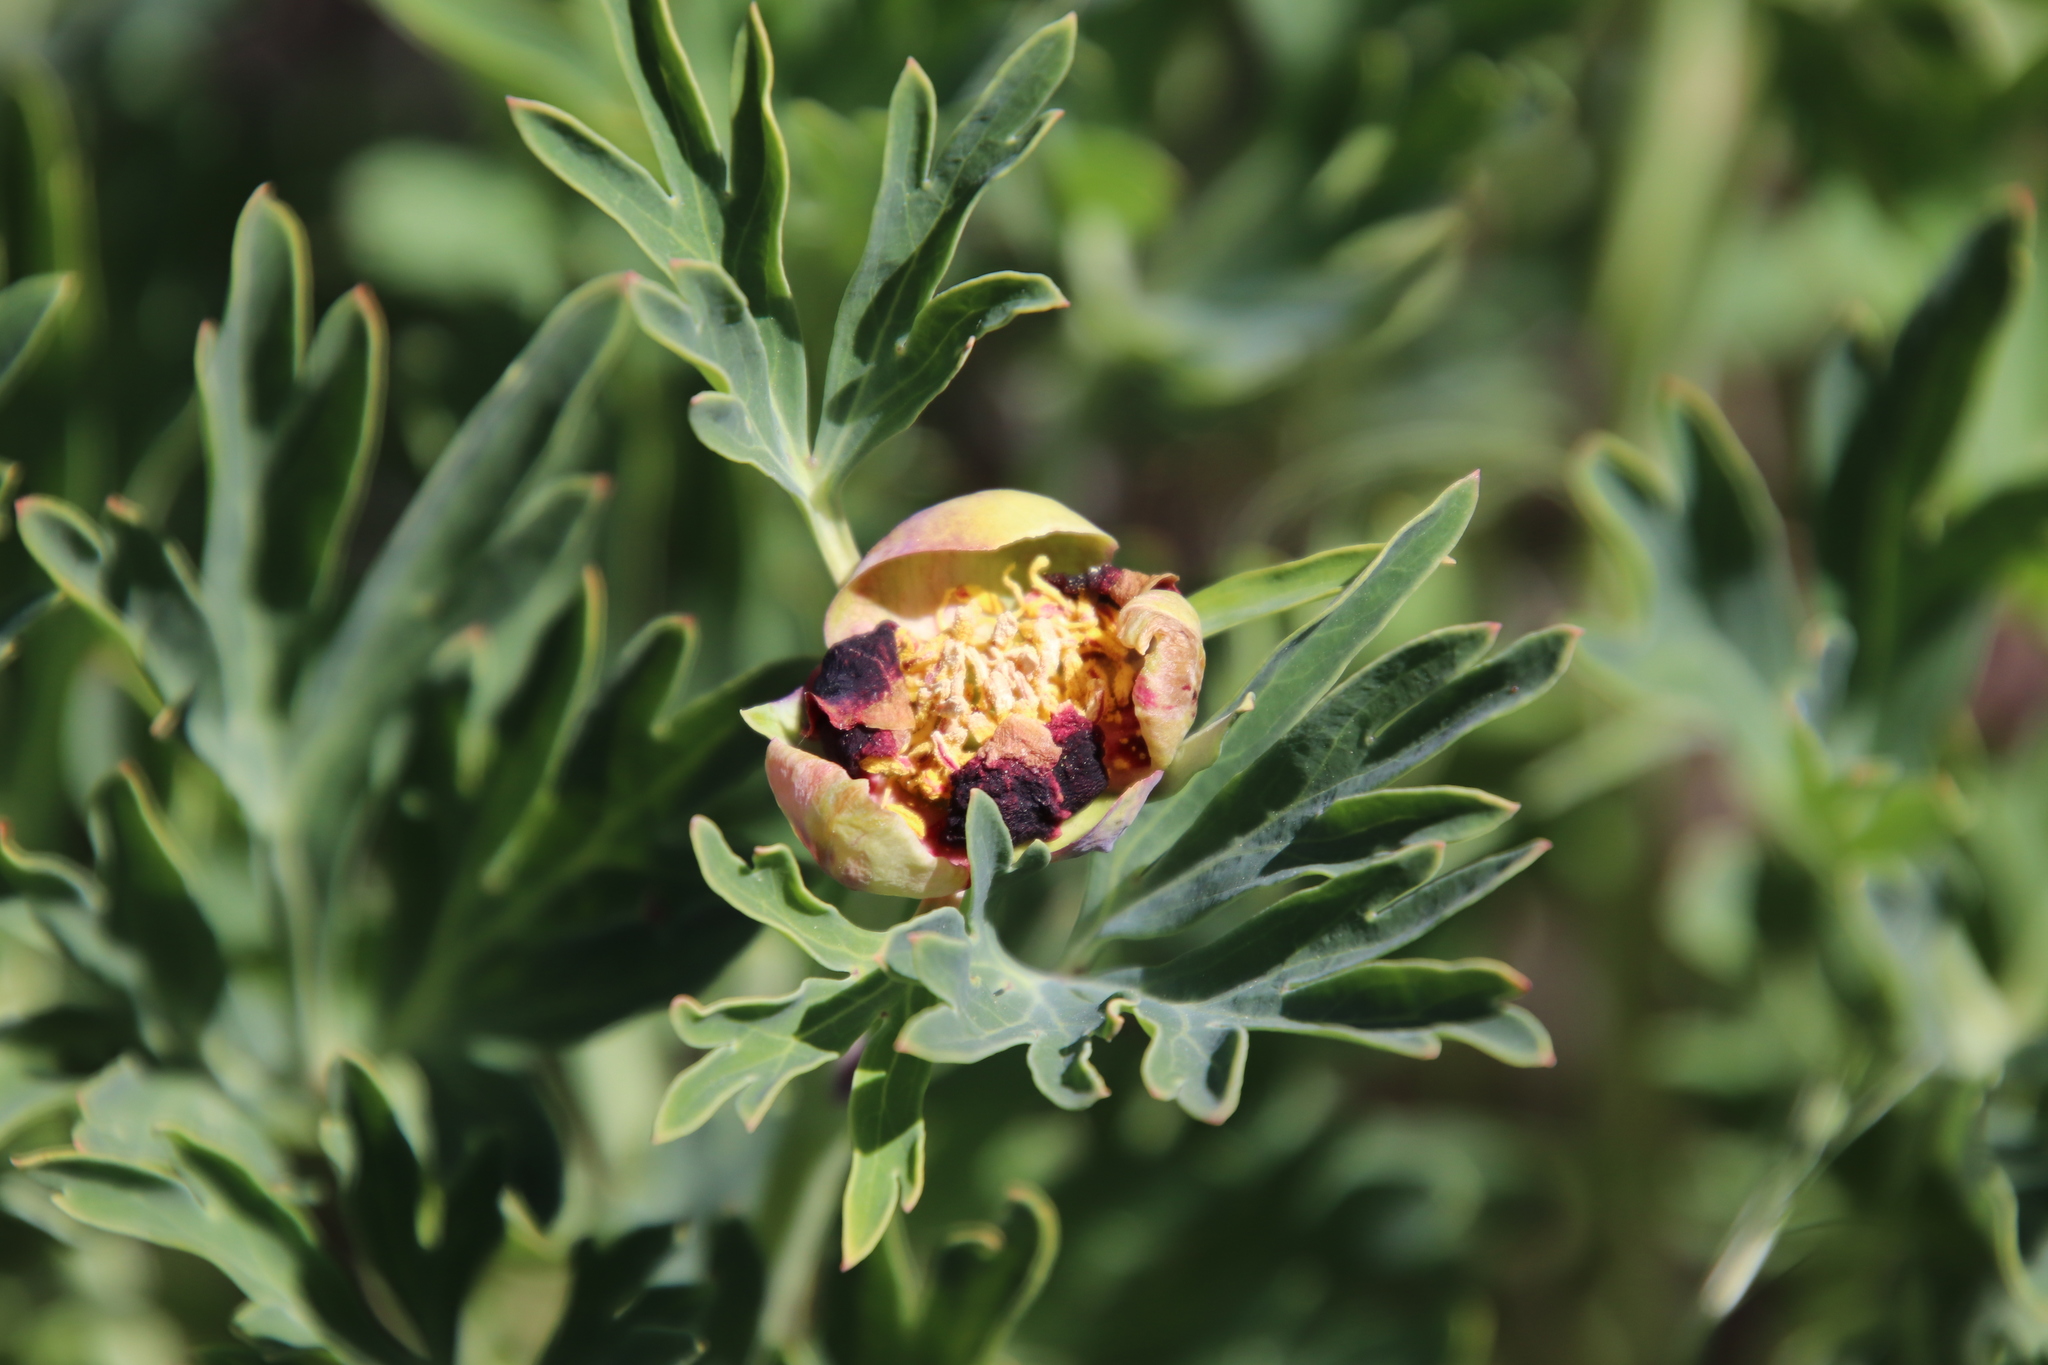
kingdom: Plantae
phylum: Tracheophyta
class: Magnoliopsida
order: Saxifragales
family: Paeoniaceae
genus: Paeonia
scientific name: Paeonia californica
